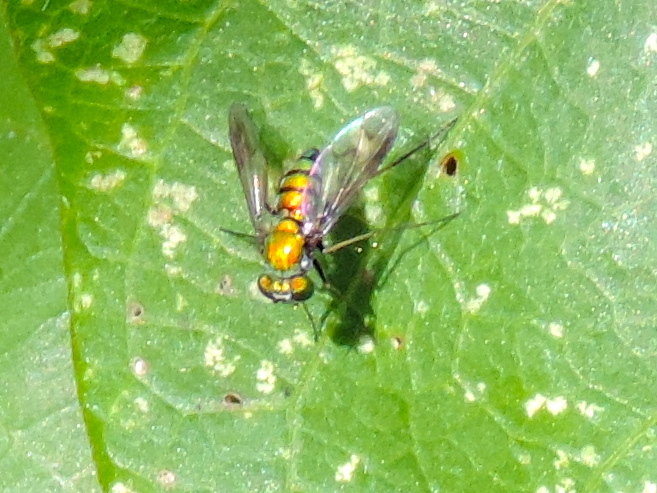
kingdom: Animalia
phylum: Arthropoda
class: Insecta
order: Diptera
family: Dolichopodidae
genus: Condylostylus
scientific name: Condylostylus
